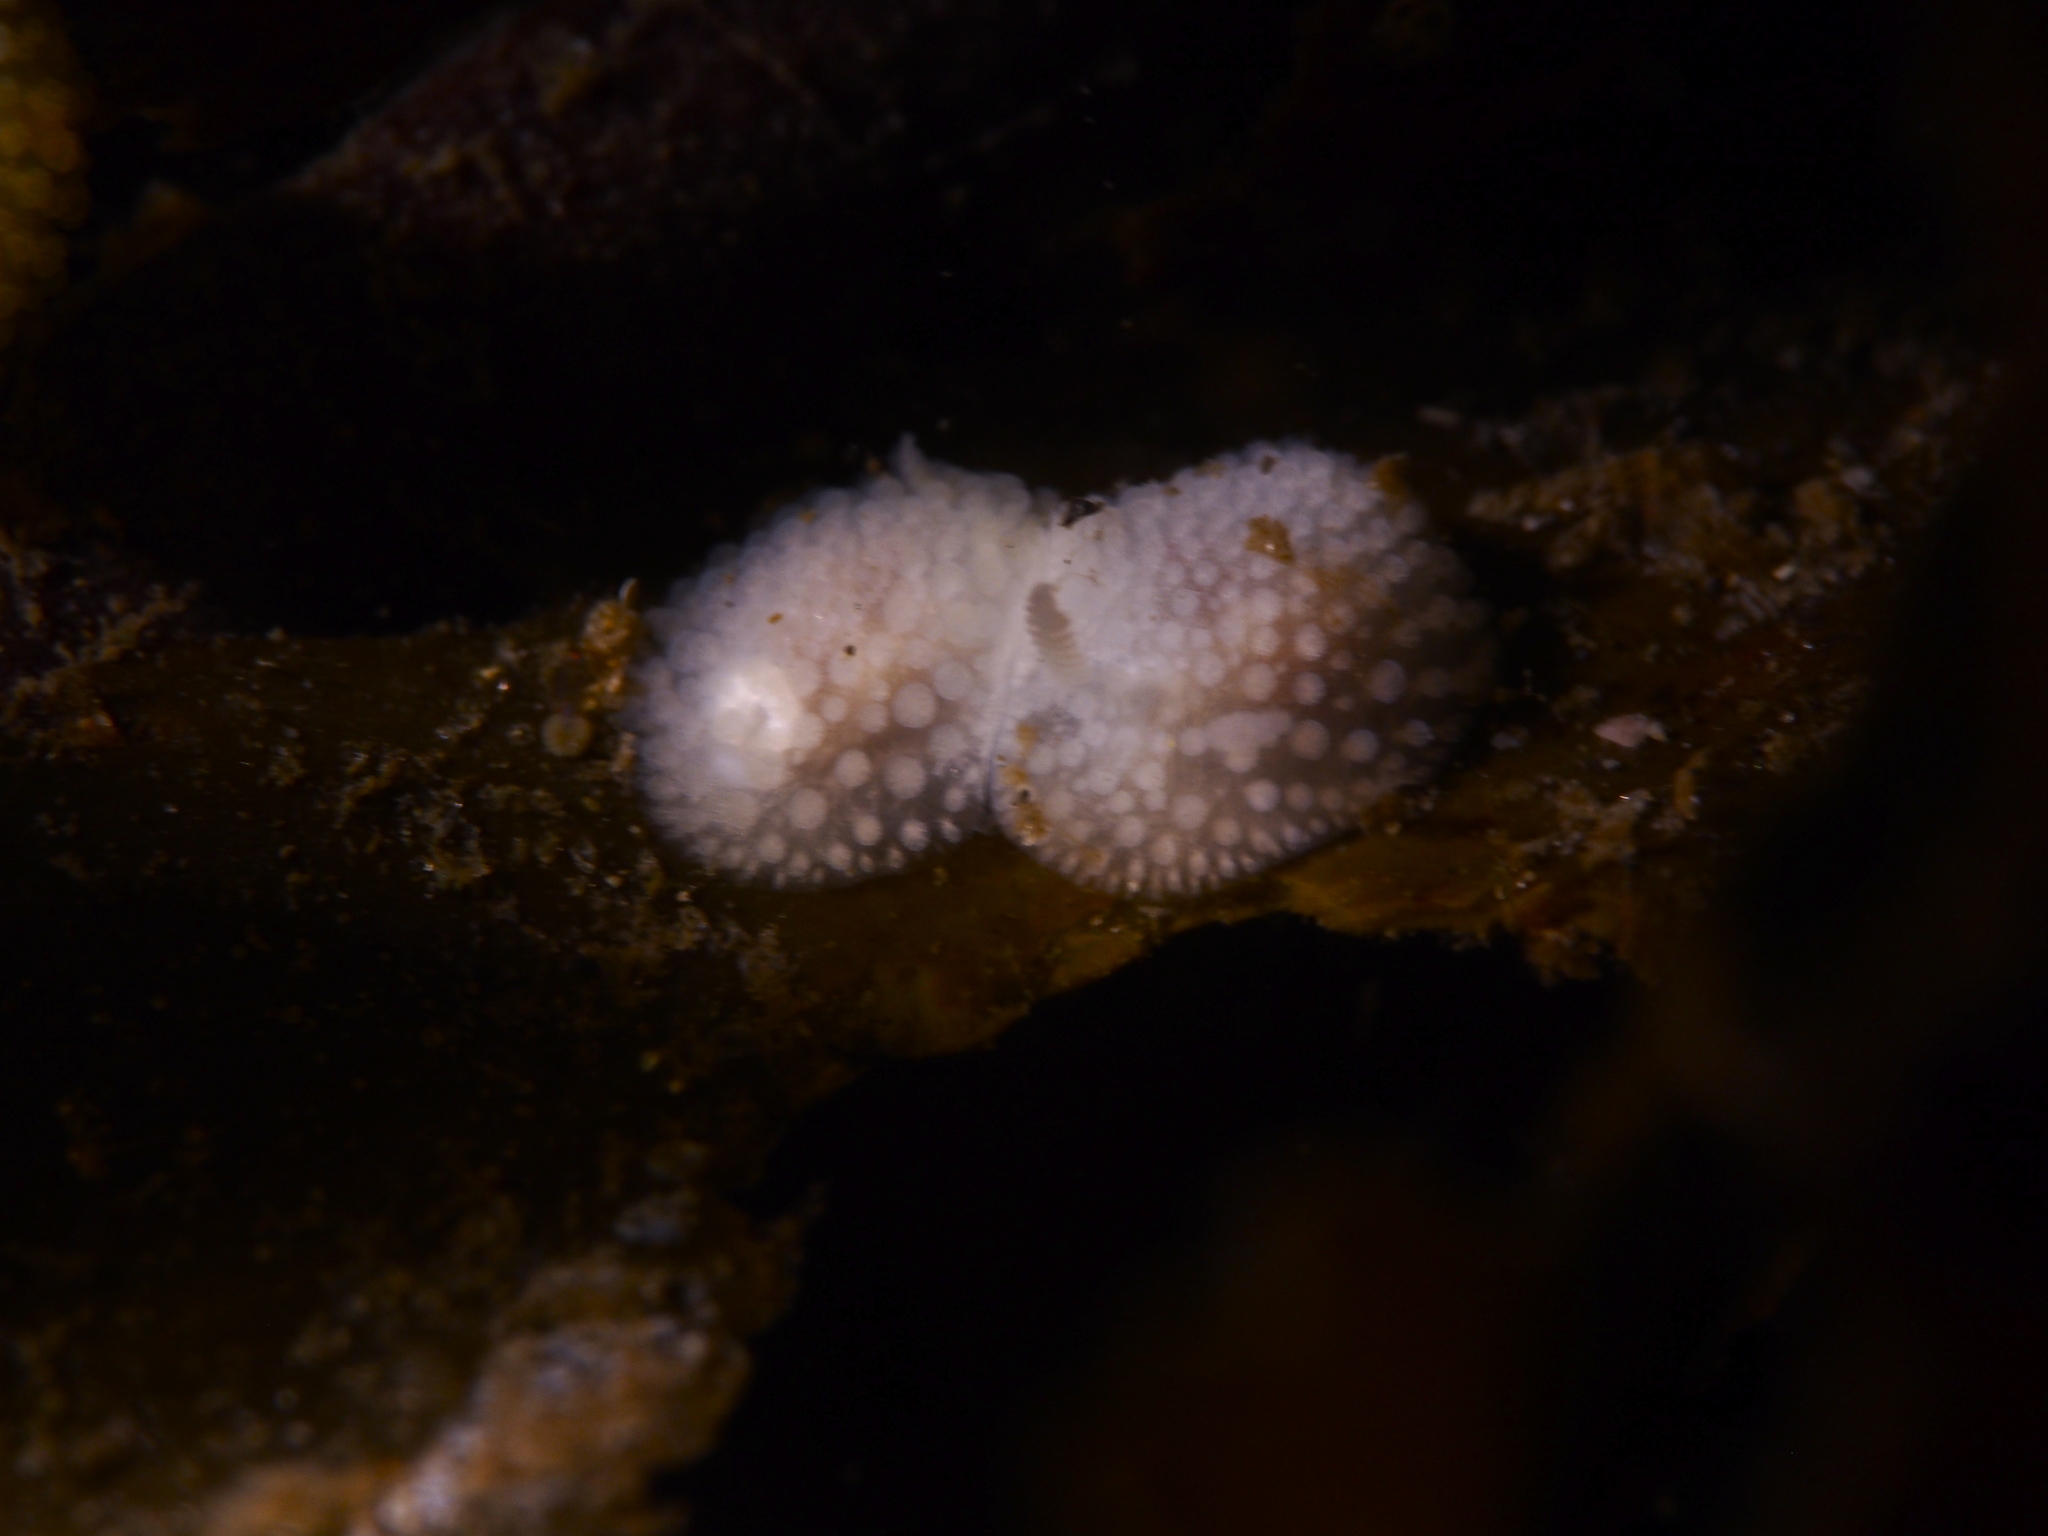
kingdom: Animalia
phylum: Mollusca
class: Gastropoda
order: Nudibranchia
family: Onchidorididae
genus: Onchidoris
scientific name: Onchidoris muricata
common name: Rough doris
